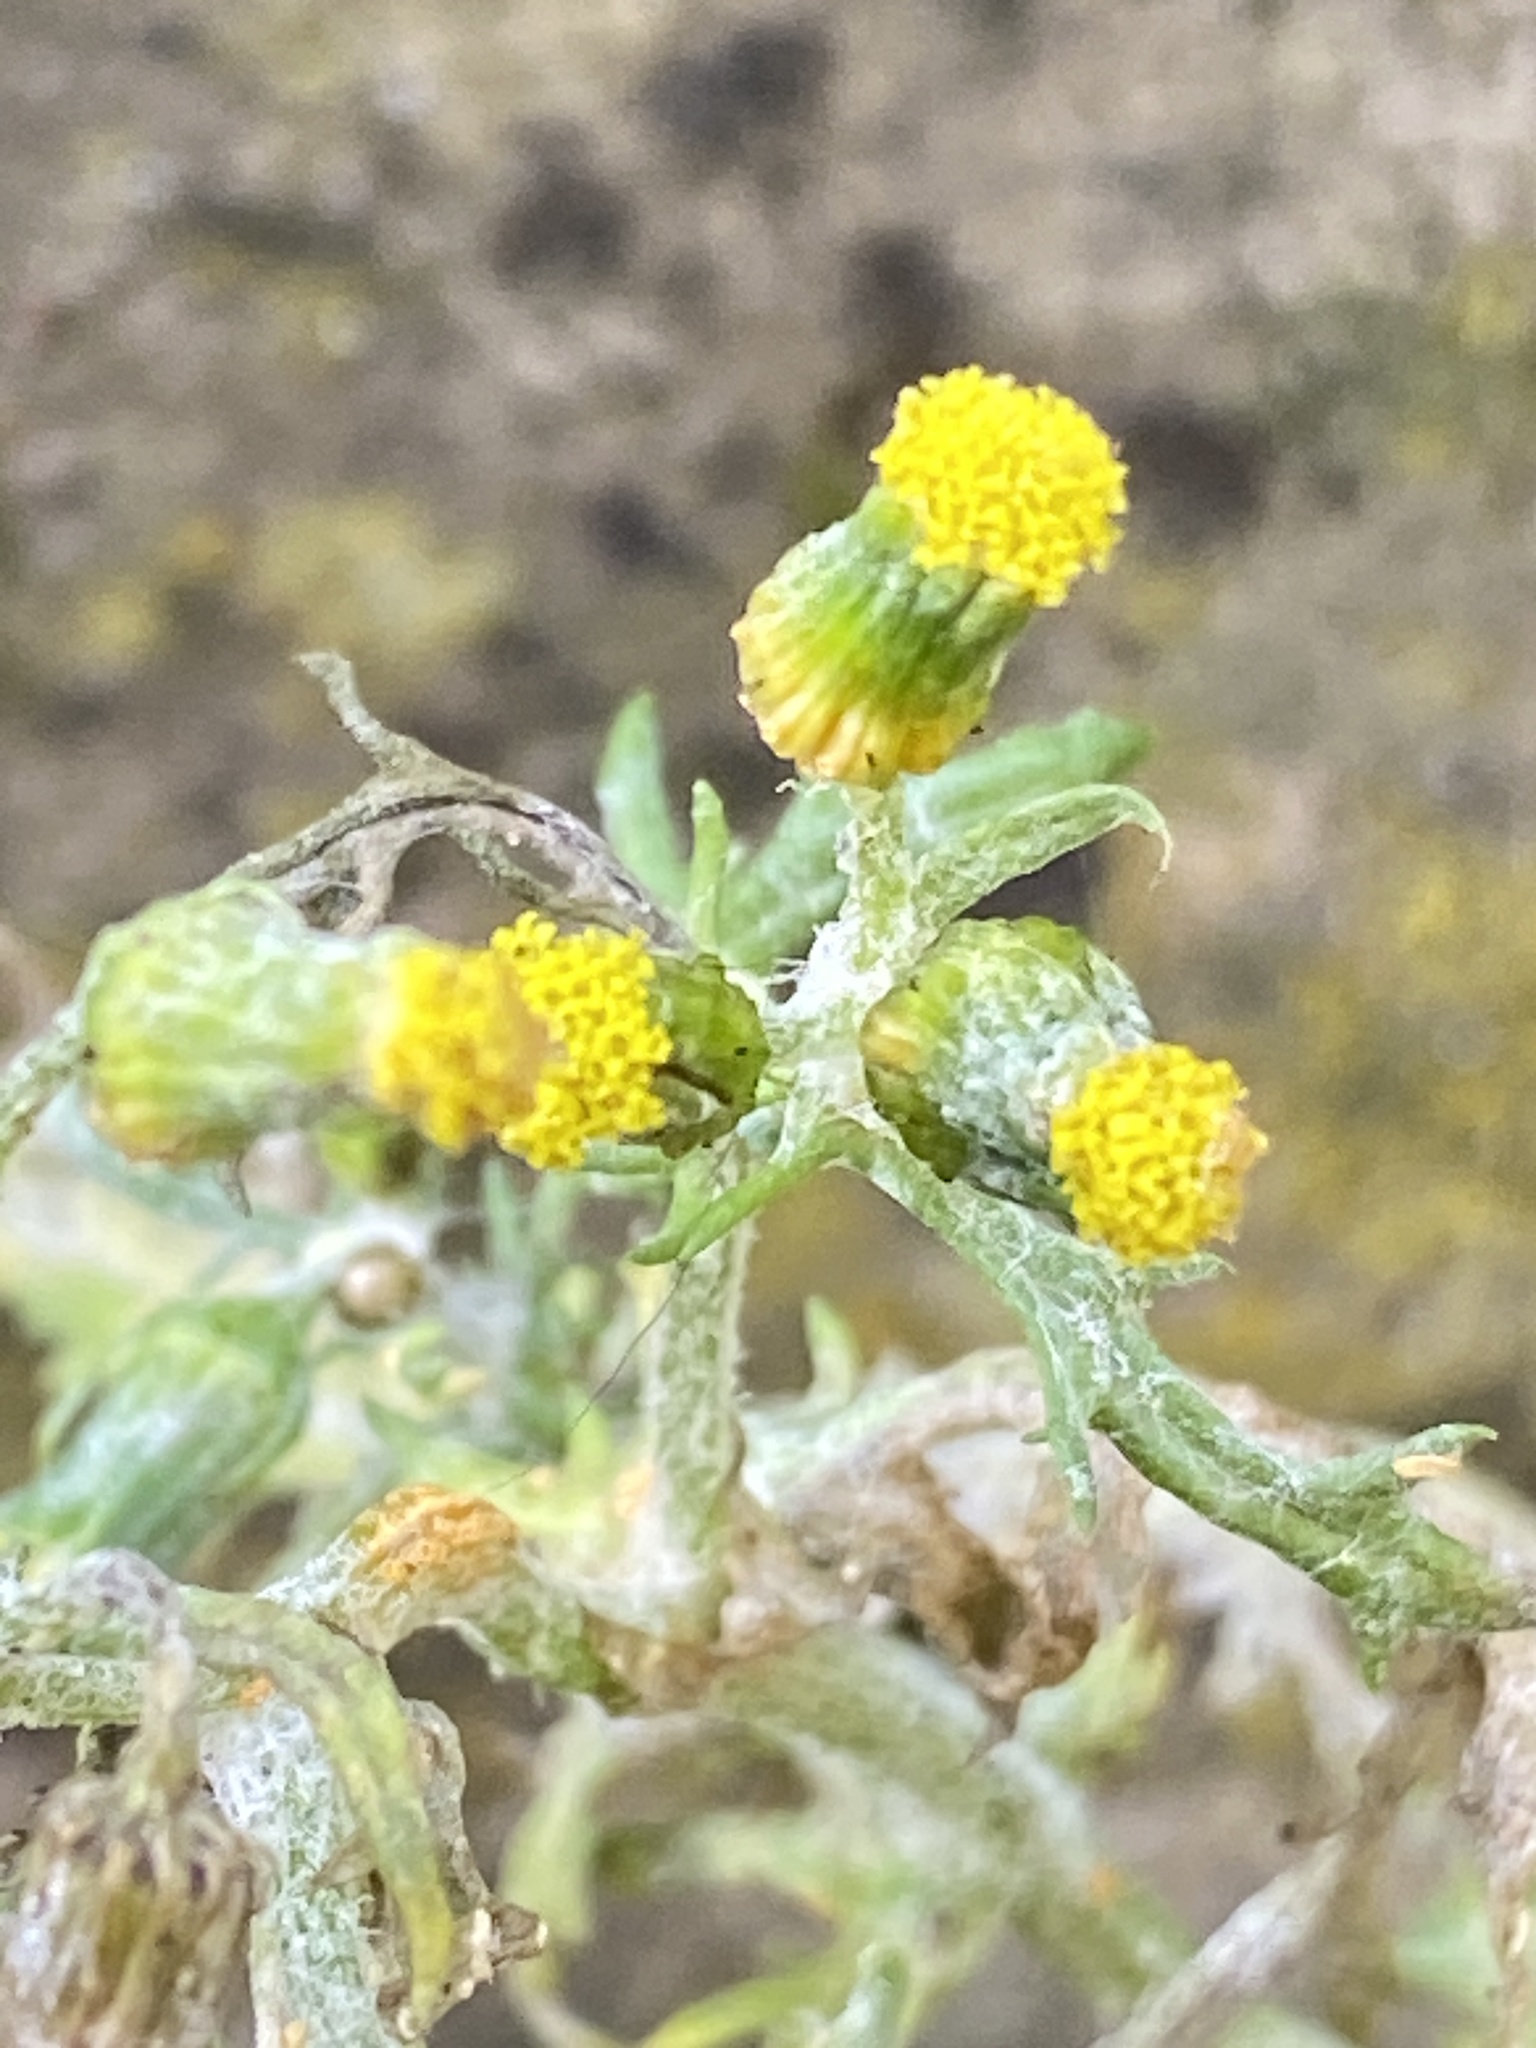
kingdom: Plantae
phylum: Tracheophyta
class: Magnoliopsida
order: Asterales
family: Asteraceae
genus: Senecio
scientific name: Senecio vulgaris
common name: Old-man-in-the-spring
